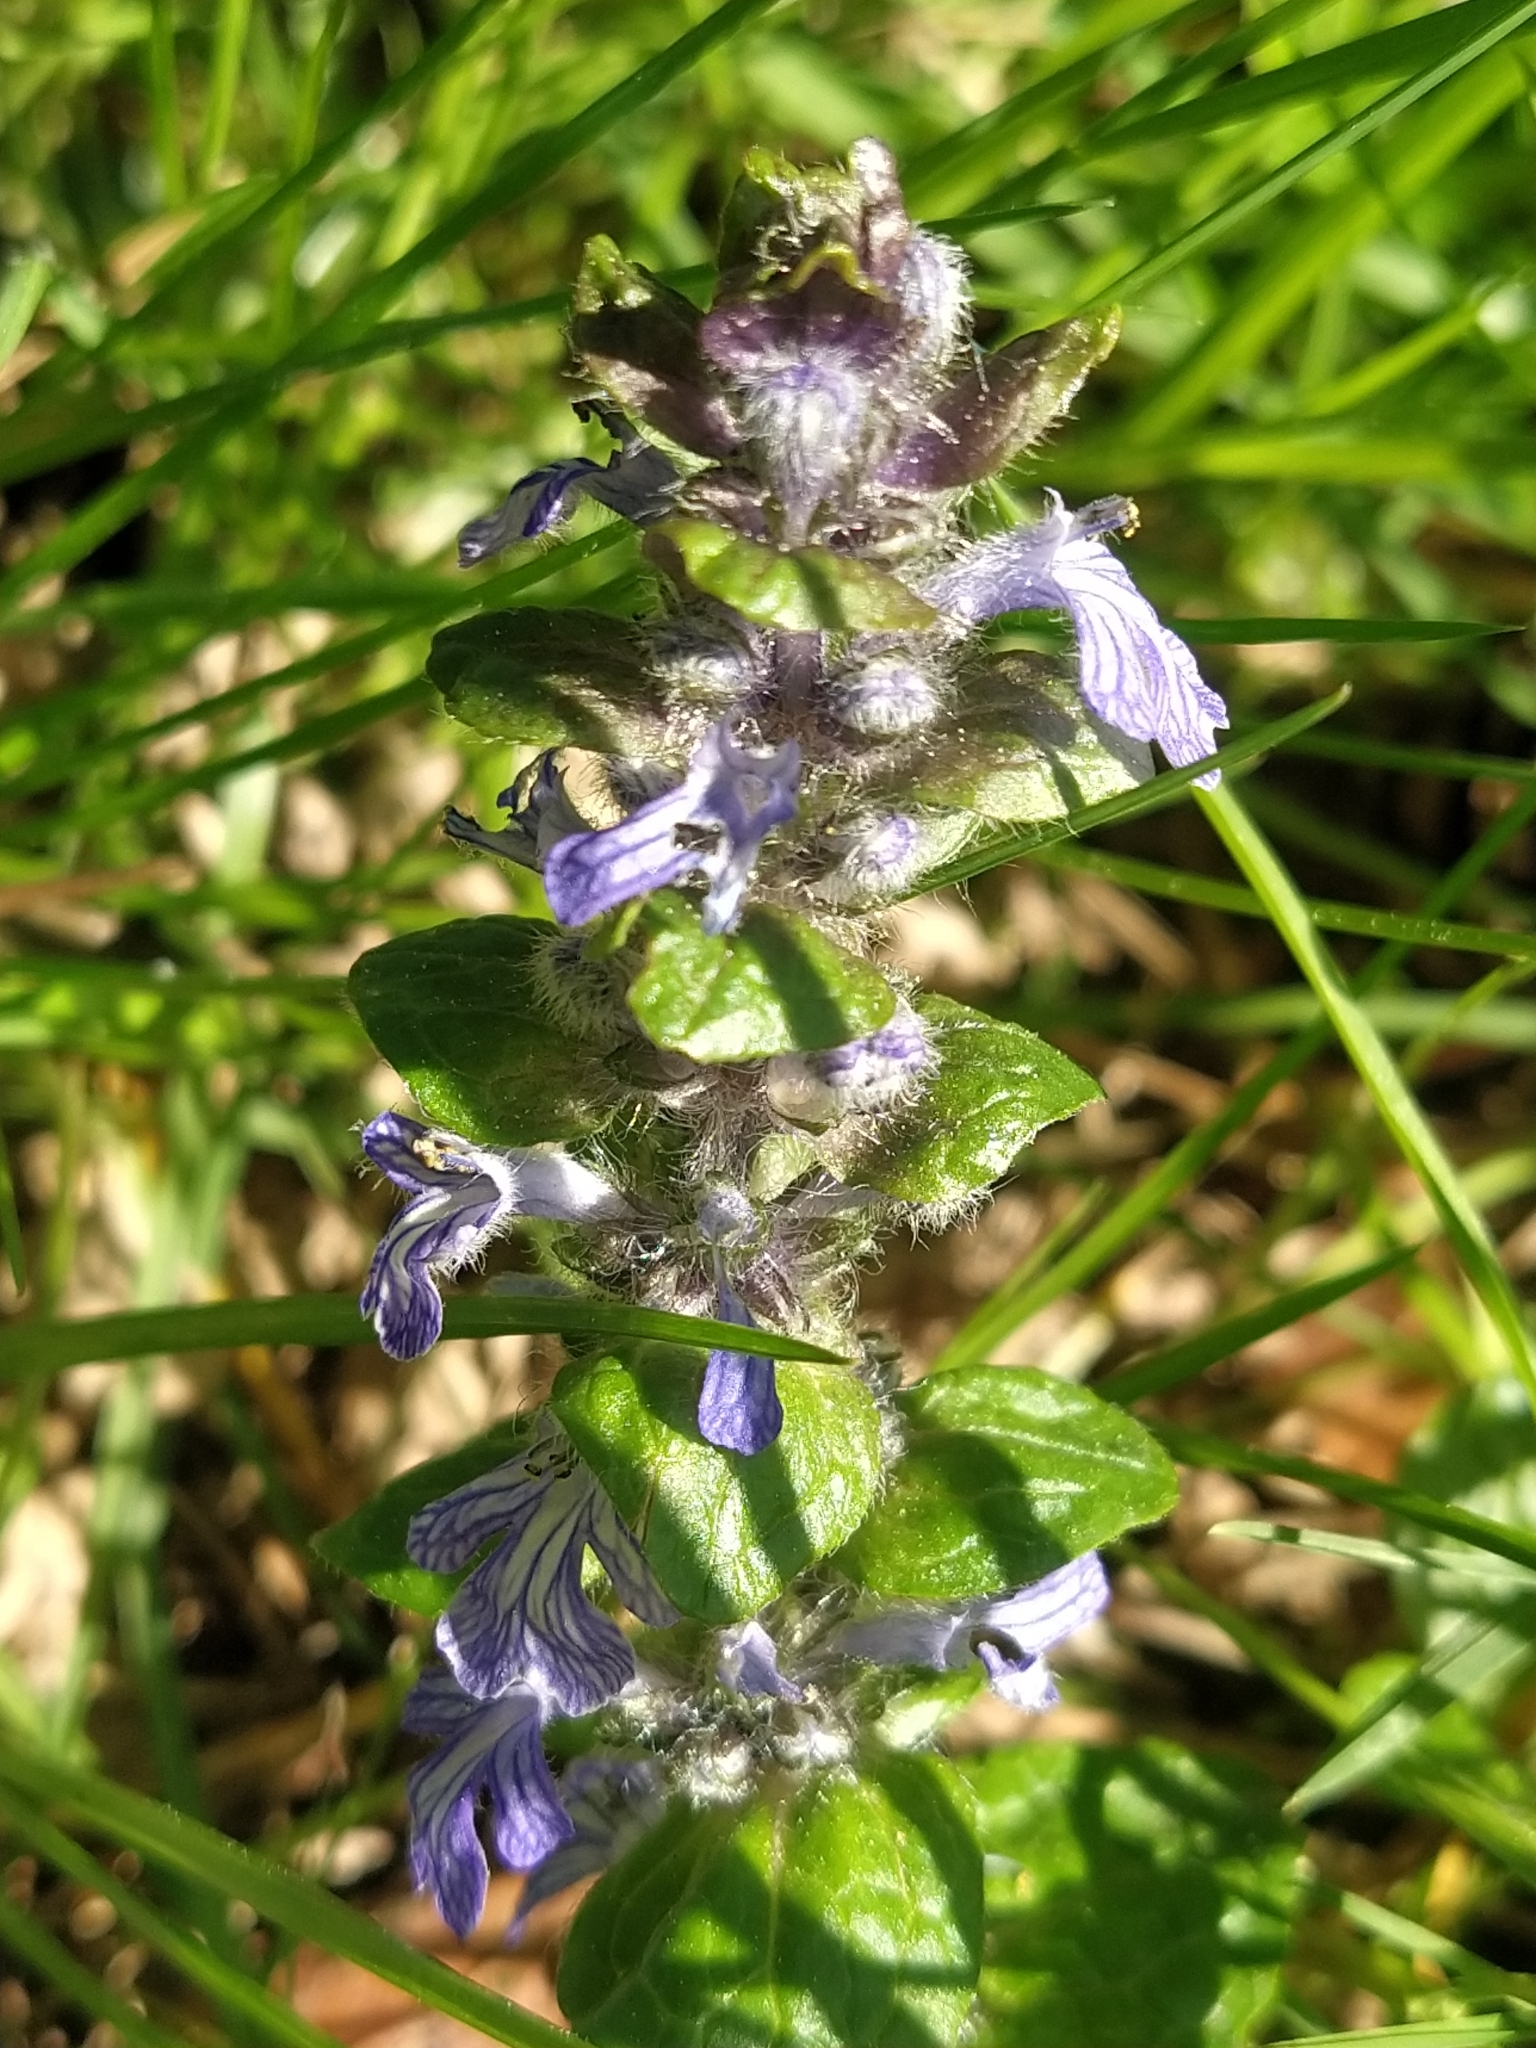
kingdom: Plantae
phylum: Tracheophyta
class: Magnoliopsida
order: Lamiales
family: Lamiaceae
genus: Ajuga
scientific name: Ajuga reptans
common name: Bugle
